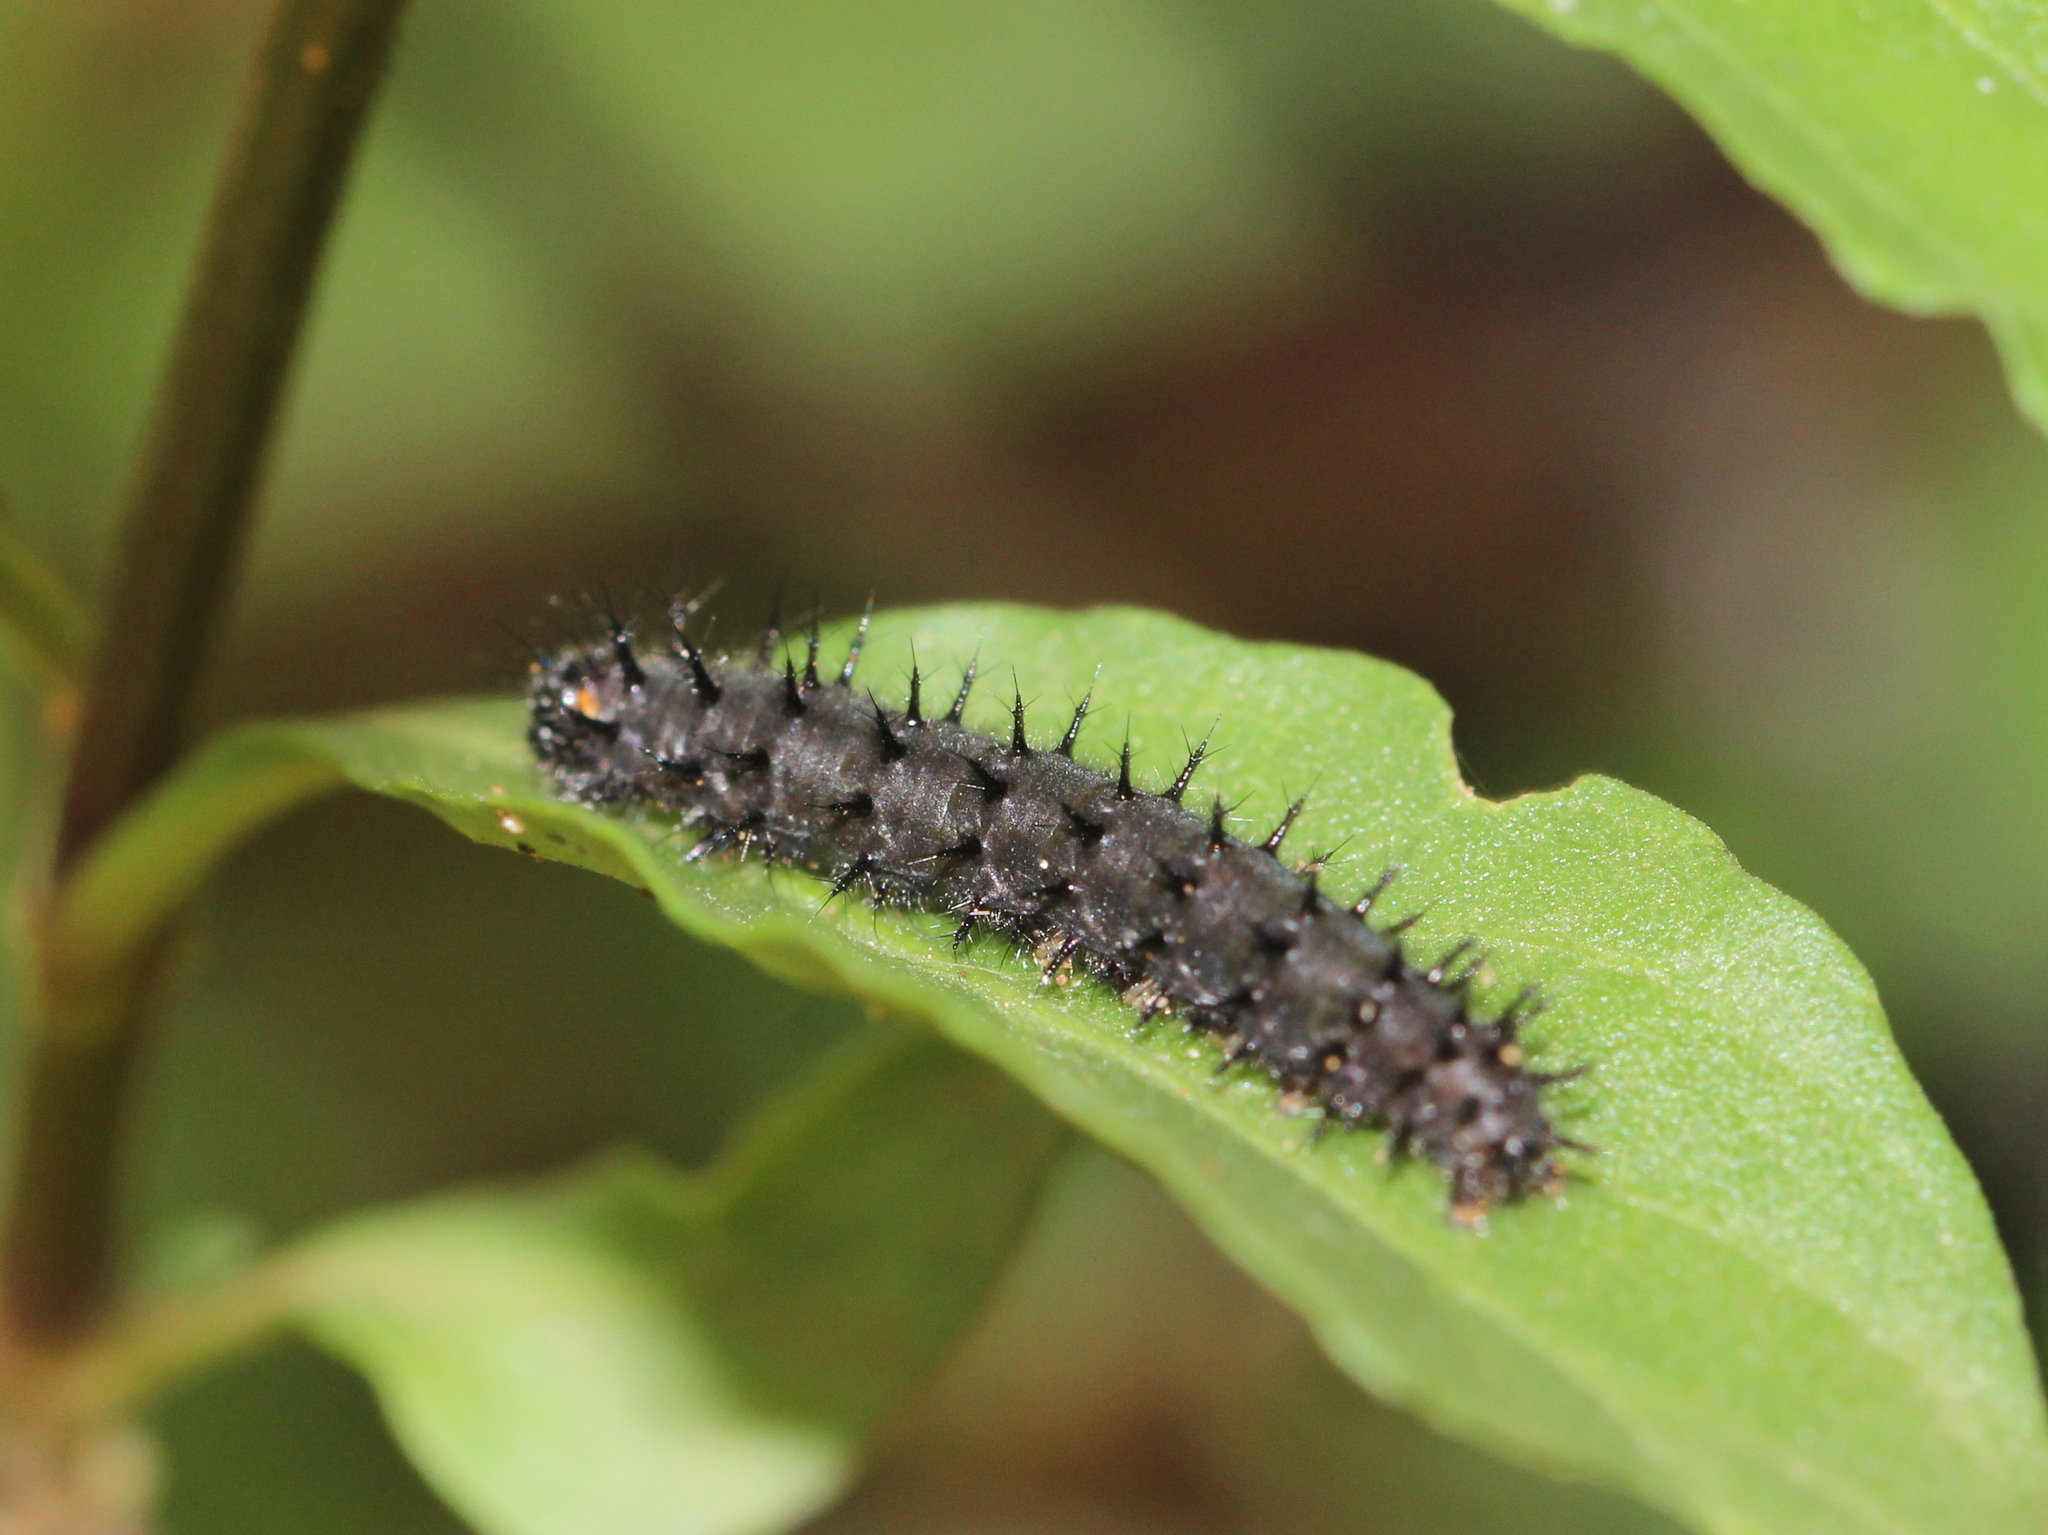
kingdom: Animalia
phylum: Arthropoda
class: Insecta
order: Lepidoptera
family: Nymphalidae
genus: Junonia
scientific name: Junonia lemonias
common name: Lemon pansy
